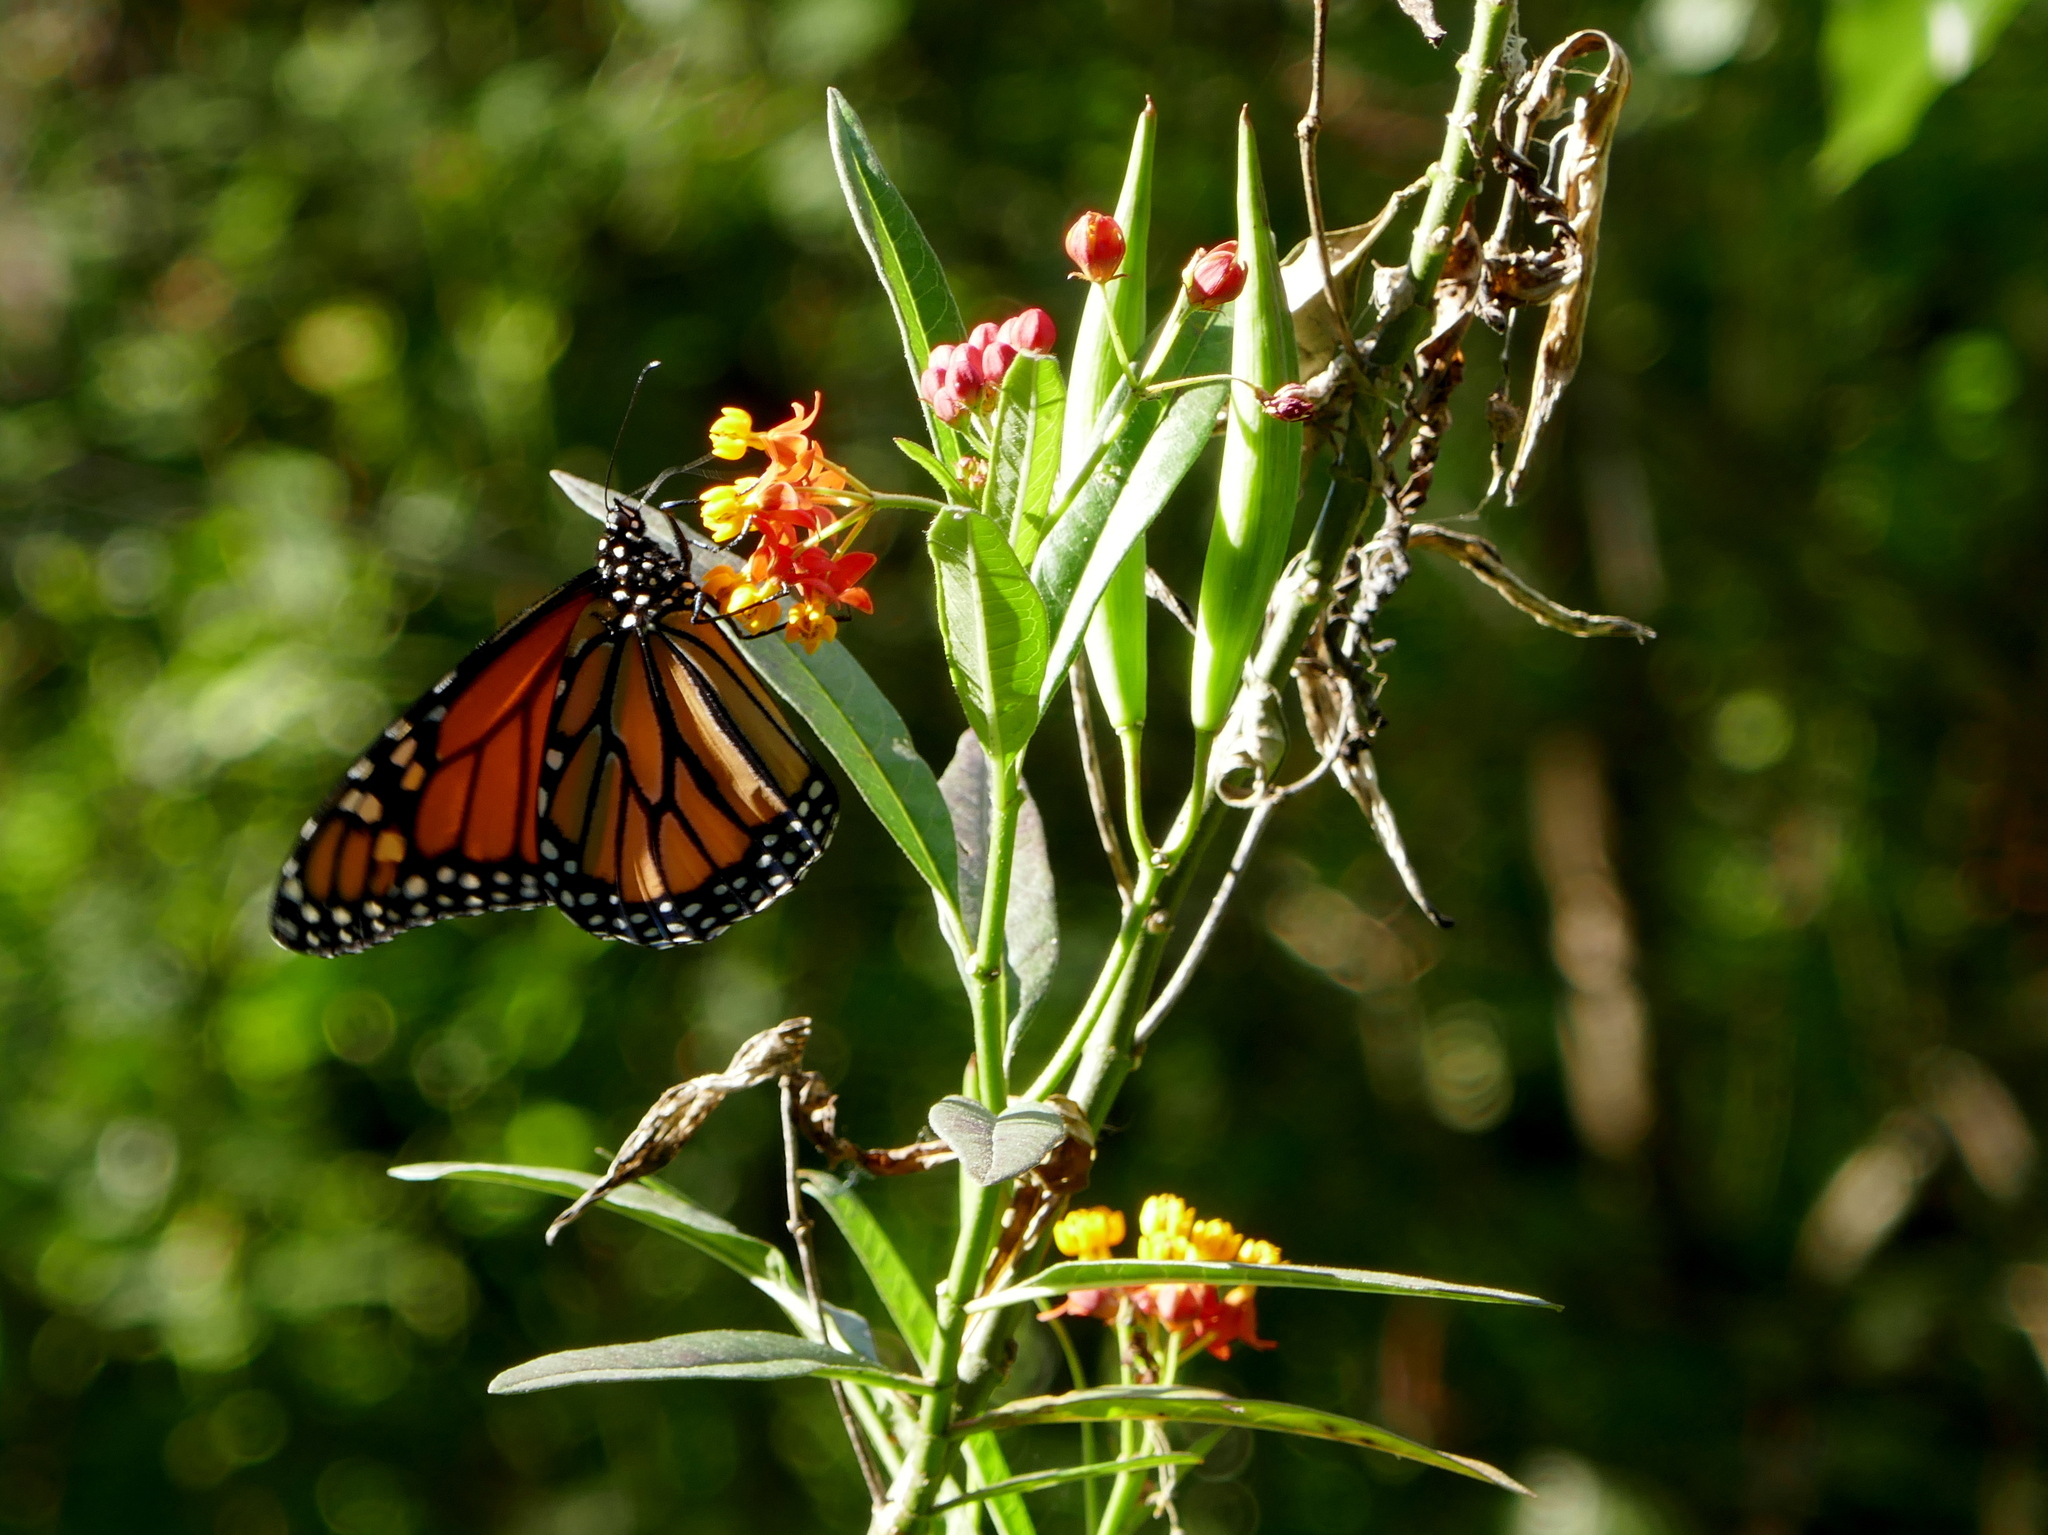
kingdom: Plantae
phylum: Tracheophyta
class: Magnoliopsida
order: Gentianales
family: Apocynaceae
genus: Asclepias
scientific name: Asclepias curassavica
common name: Bloodflower
